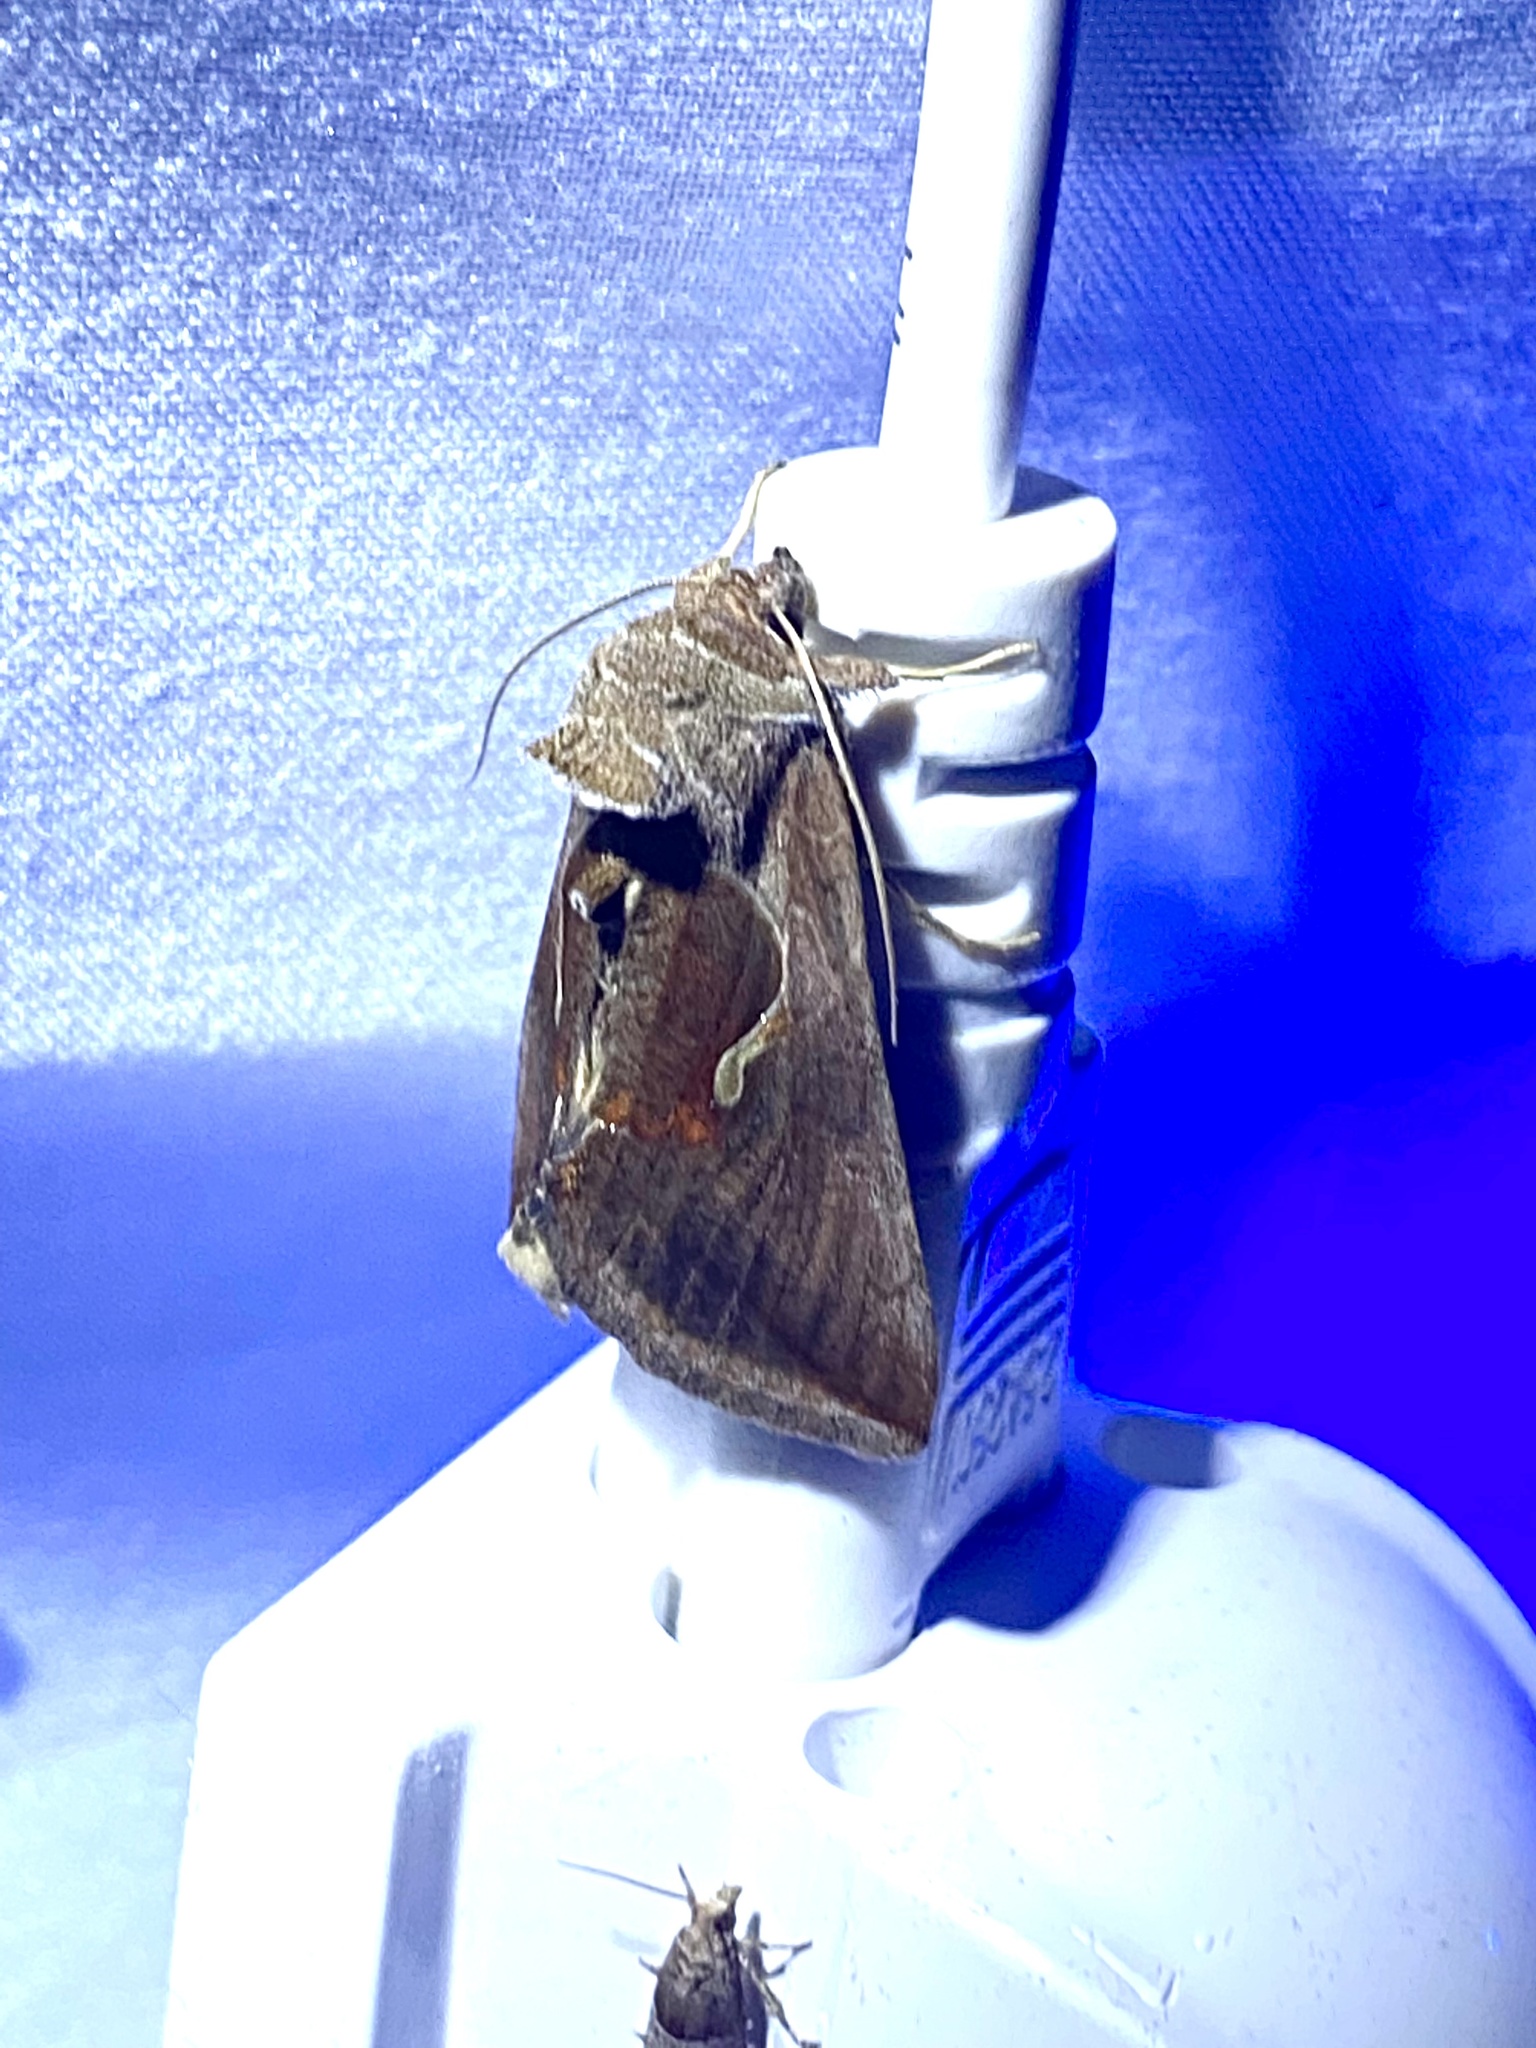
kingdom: Animalia
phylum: Arthropoda
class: Insecta
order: Lepidoptera
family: Noctuidae
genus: Anagrapha
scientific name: Anagrapha falcifera
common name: Celery looper
